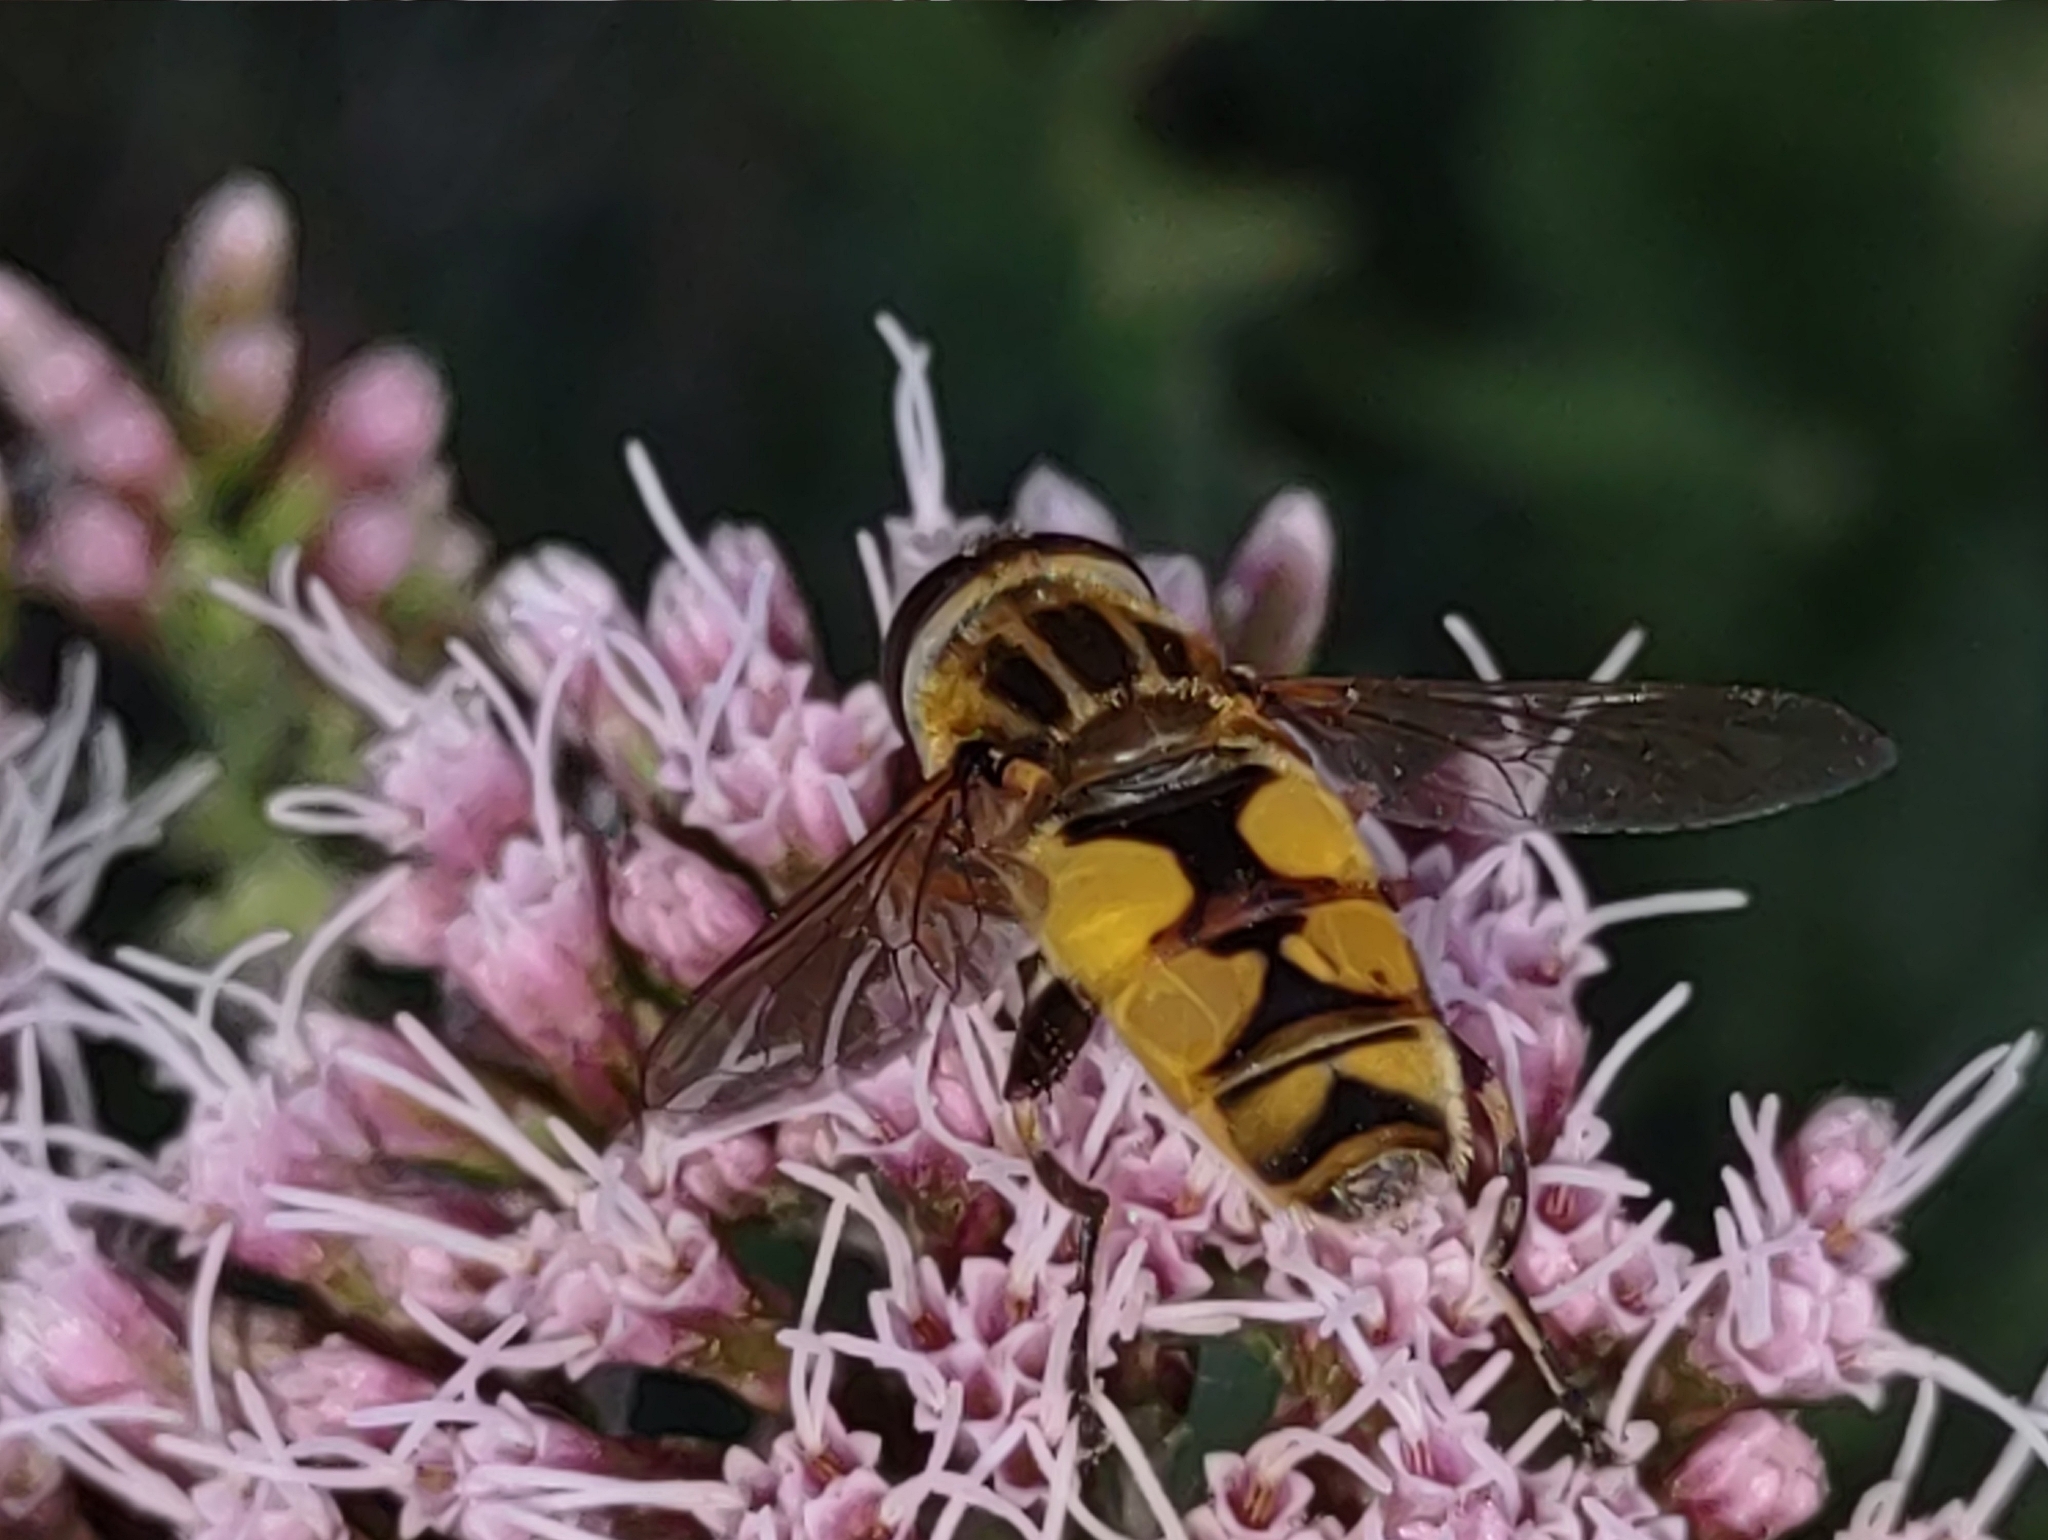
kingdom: Animalia
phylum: Arthropoda
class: Insecta
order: Diptera
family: Syrphidae
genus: Helophilus
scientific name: Helophilus hybridus
